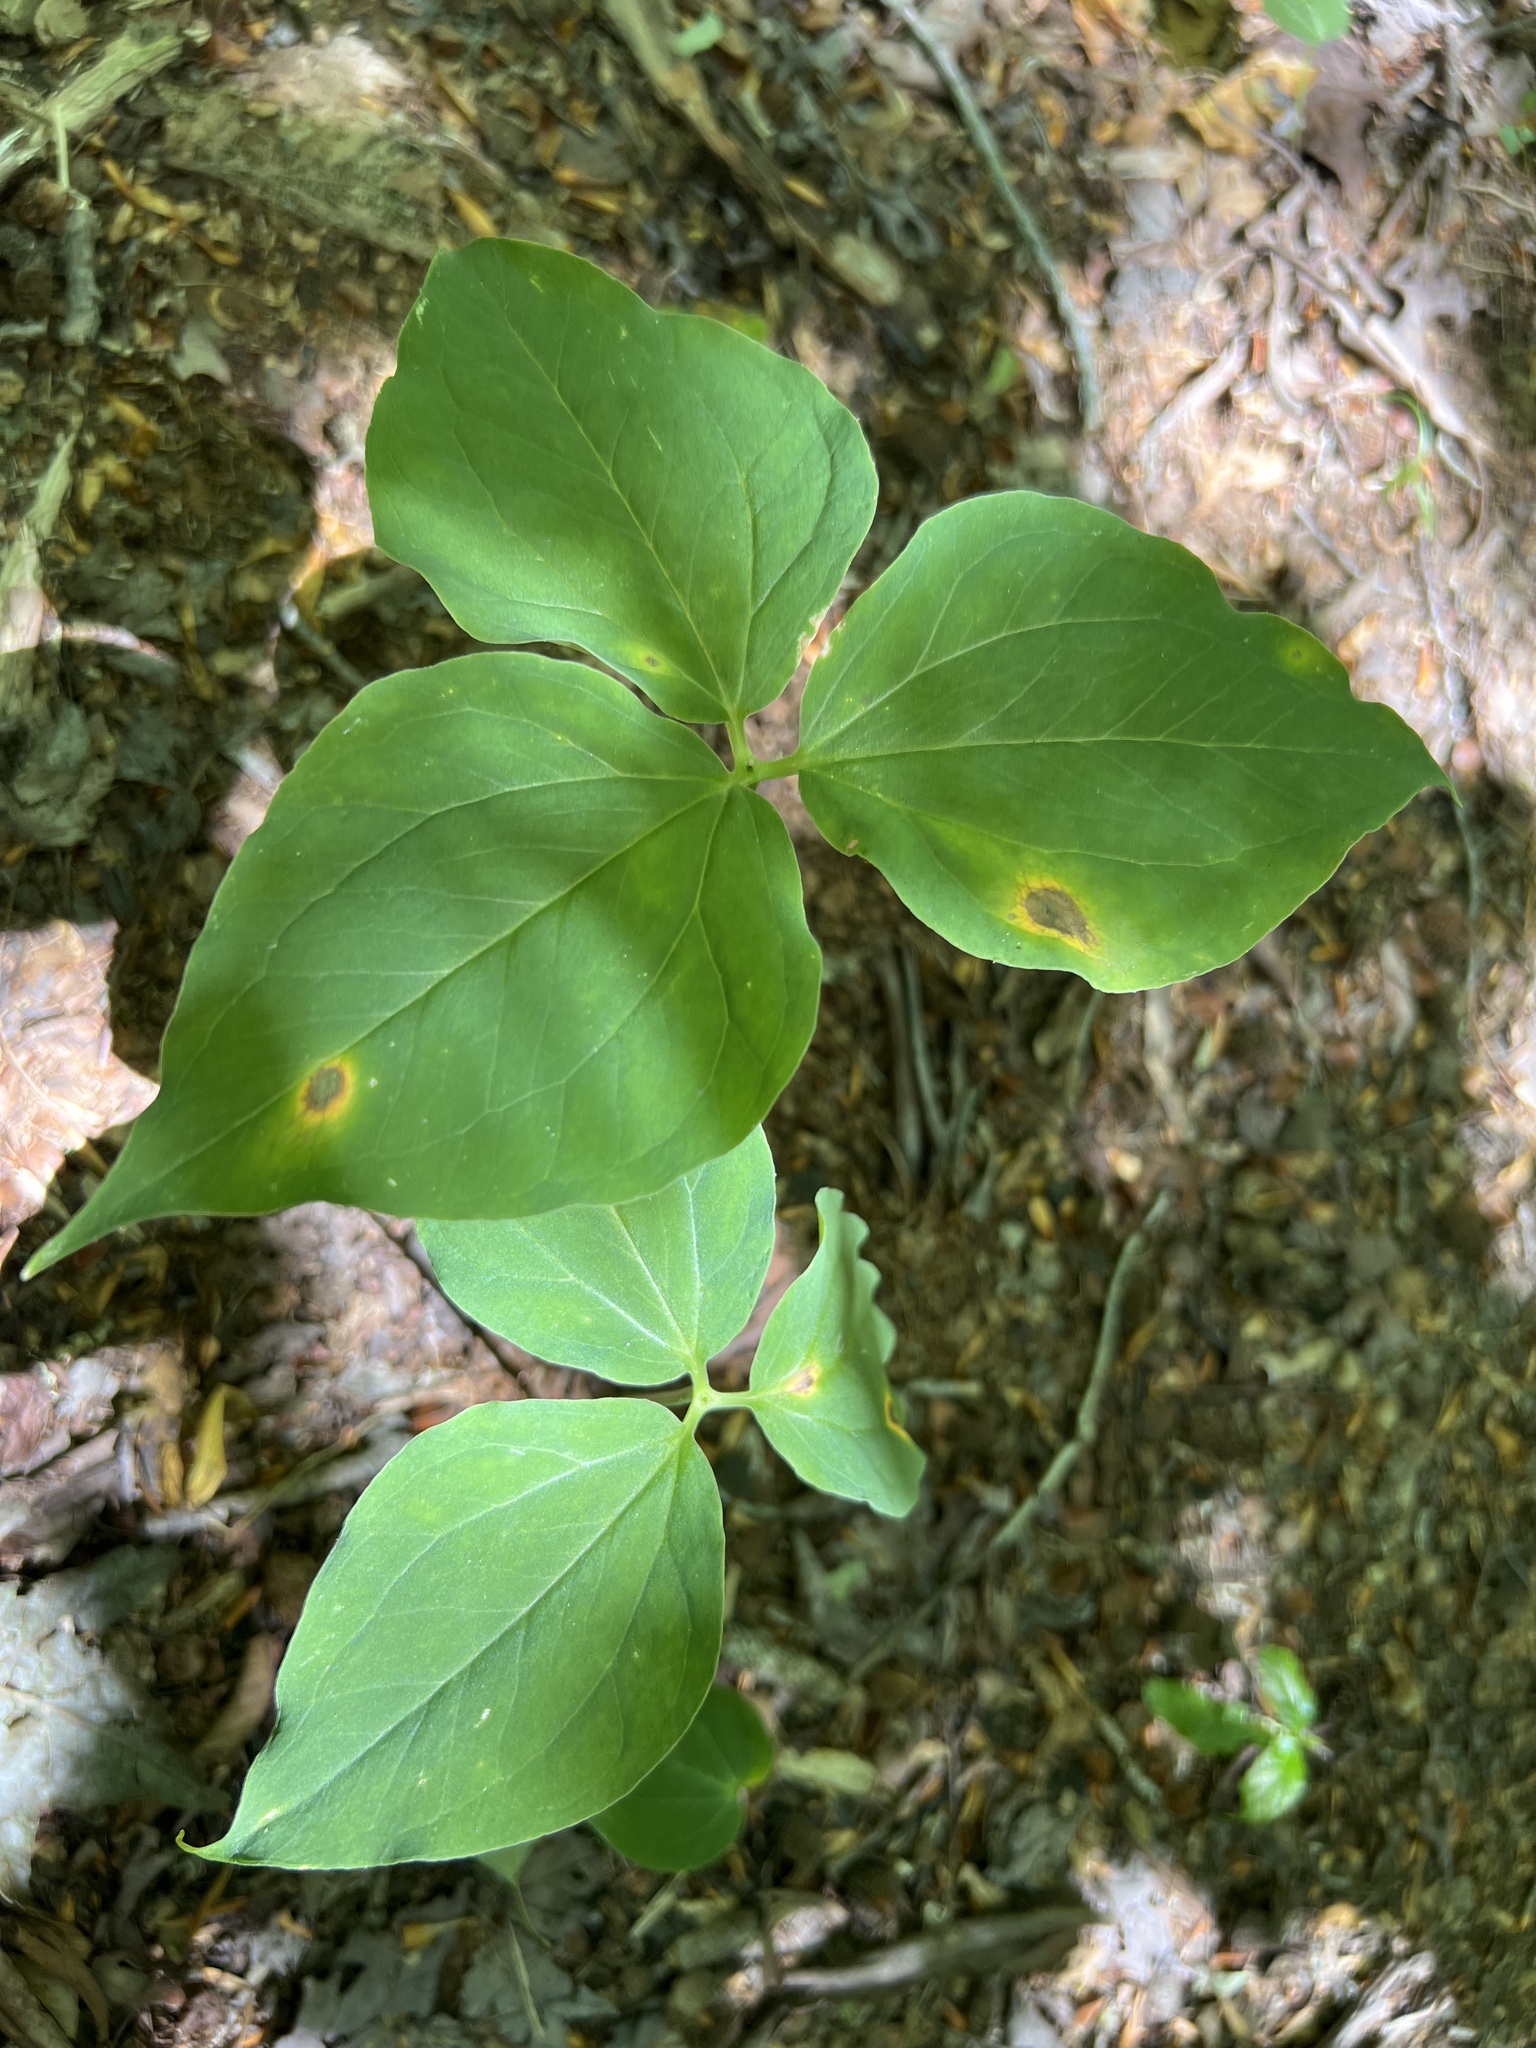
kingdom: Plantae
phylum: Tracheophyta
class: Liliopsida
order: Liliales
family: Melanthiaceae
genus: Trillium
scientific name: Trillium undulatum
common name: Paint trillium
